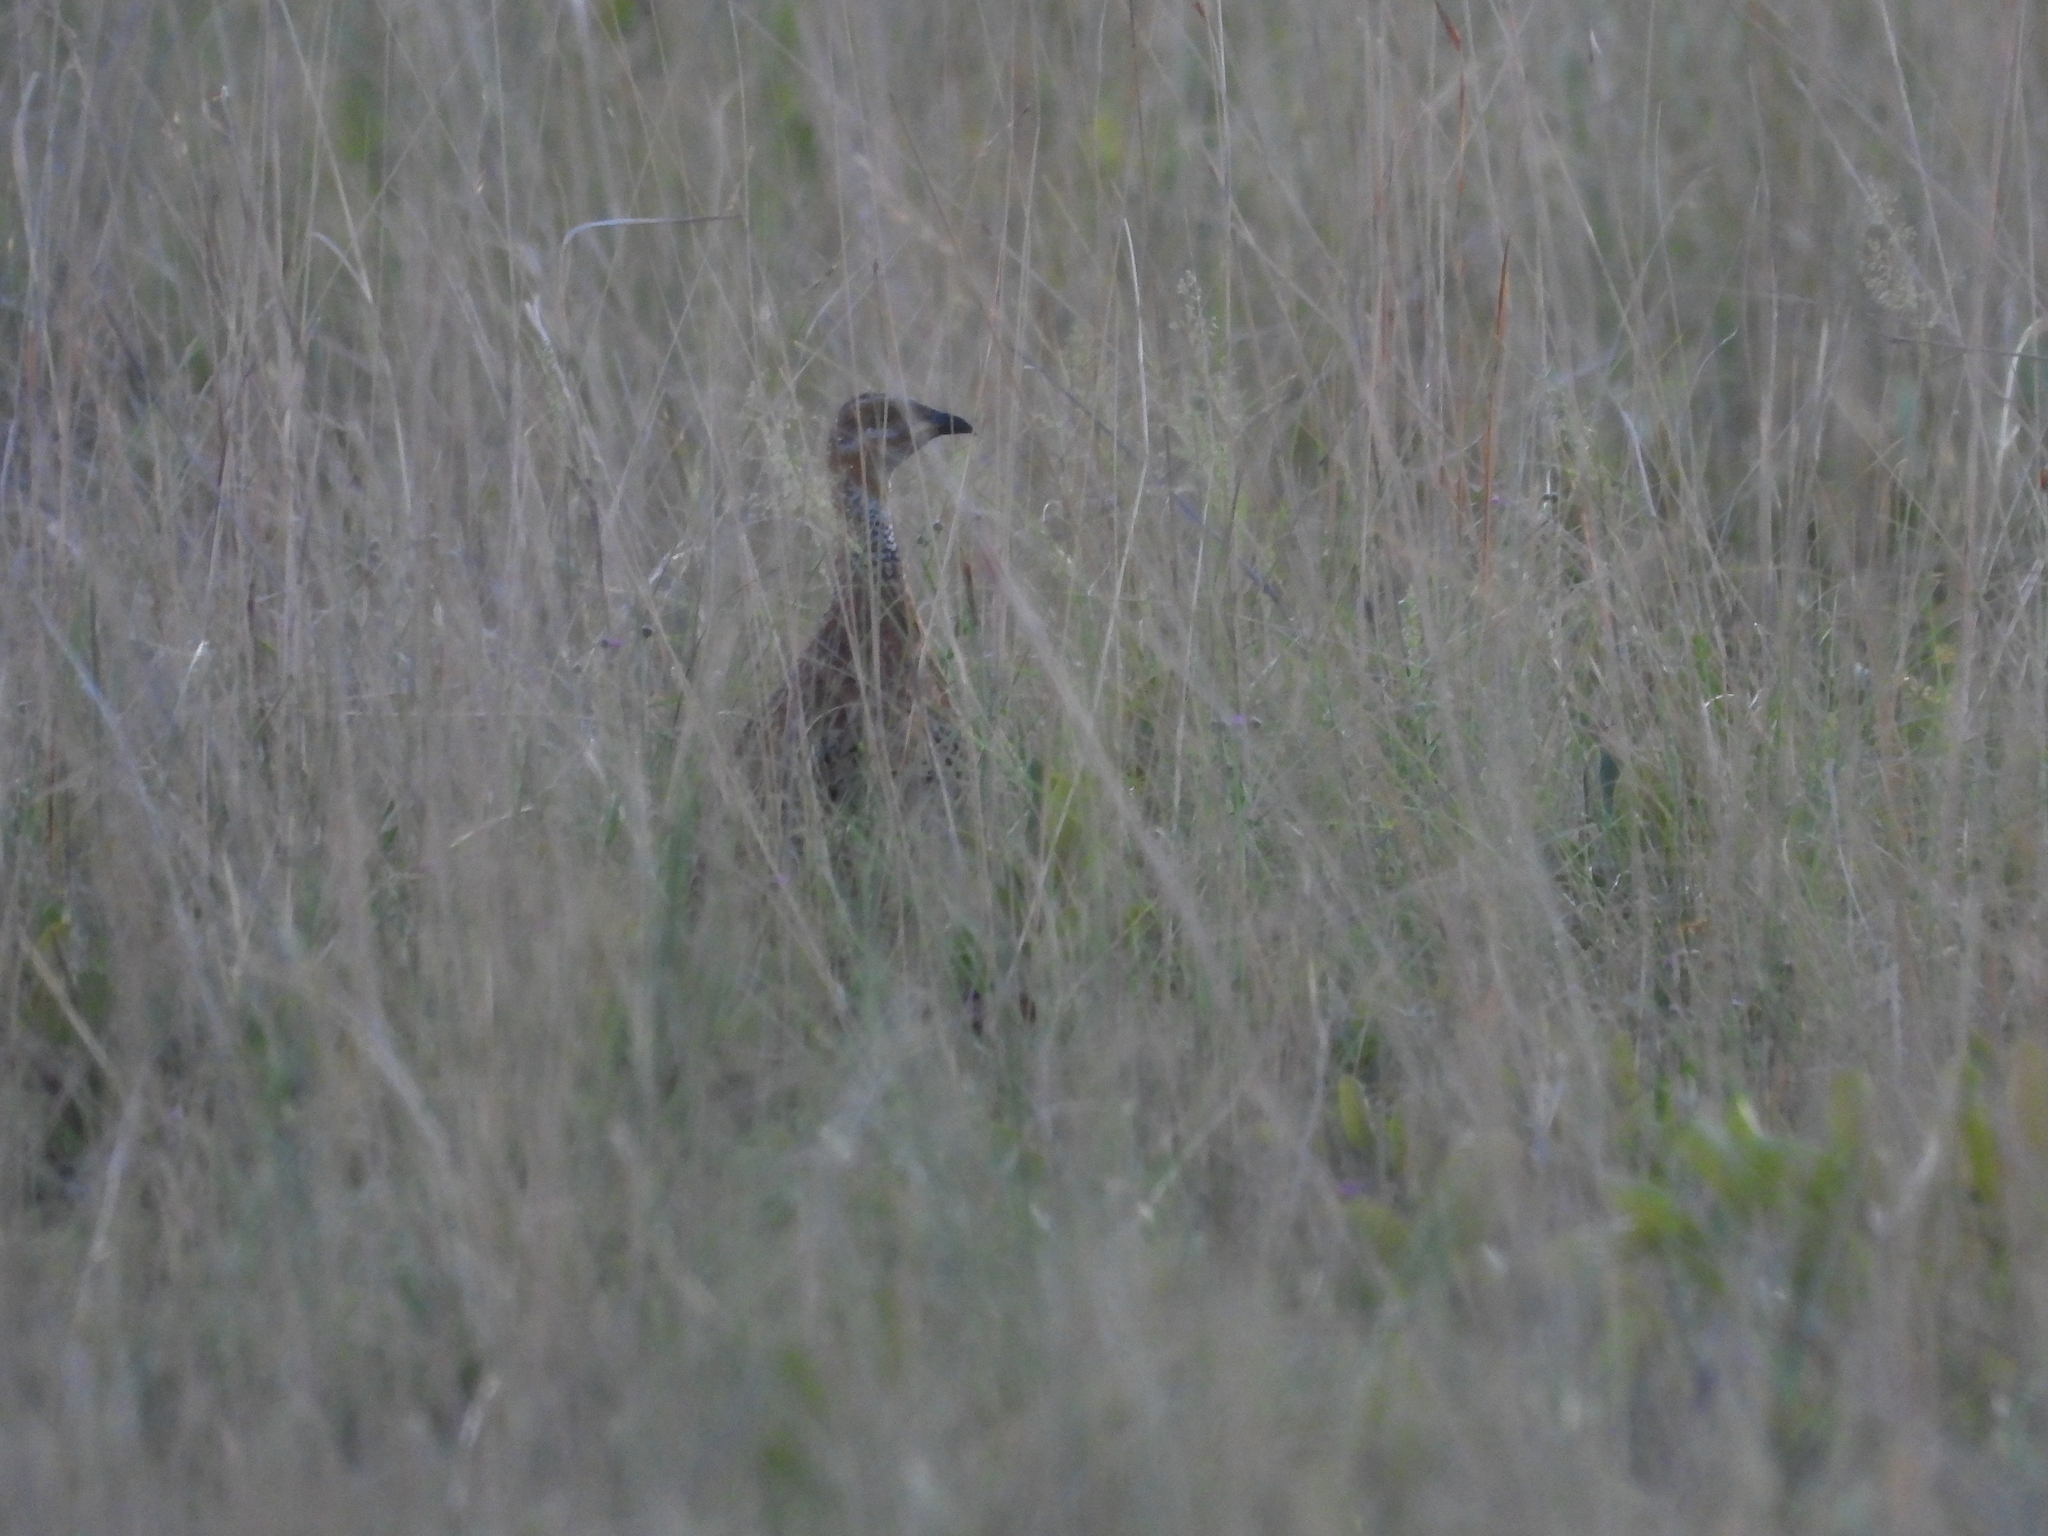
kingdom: Animalia
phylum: Chordata
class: Aves
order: Galliformes
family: Phasianidae
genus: Scleroptila
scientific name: Scleroptila levaillantii
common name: Red-winged francolin
